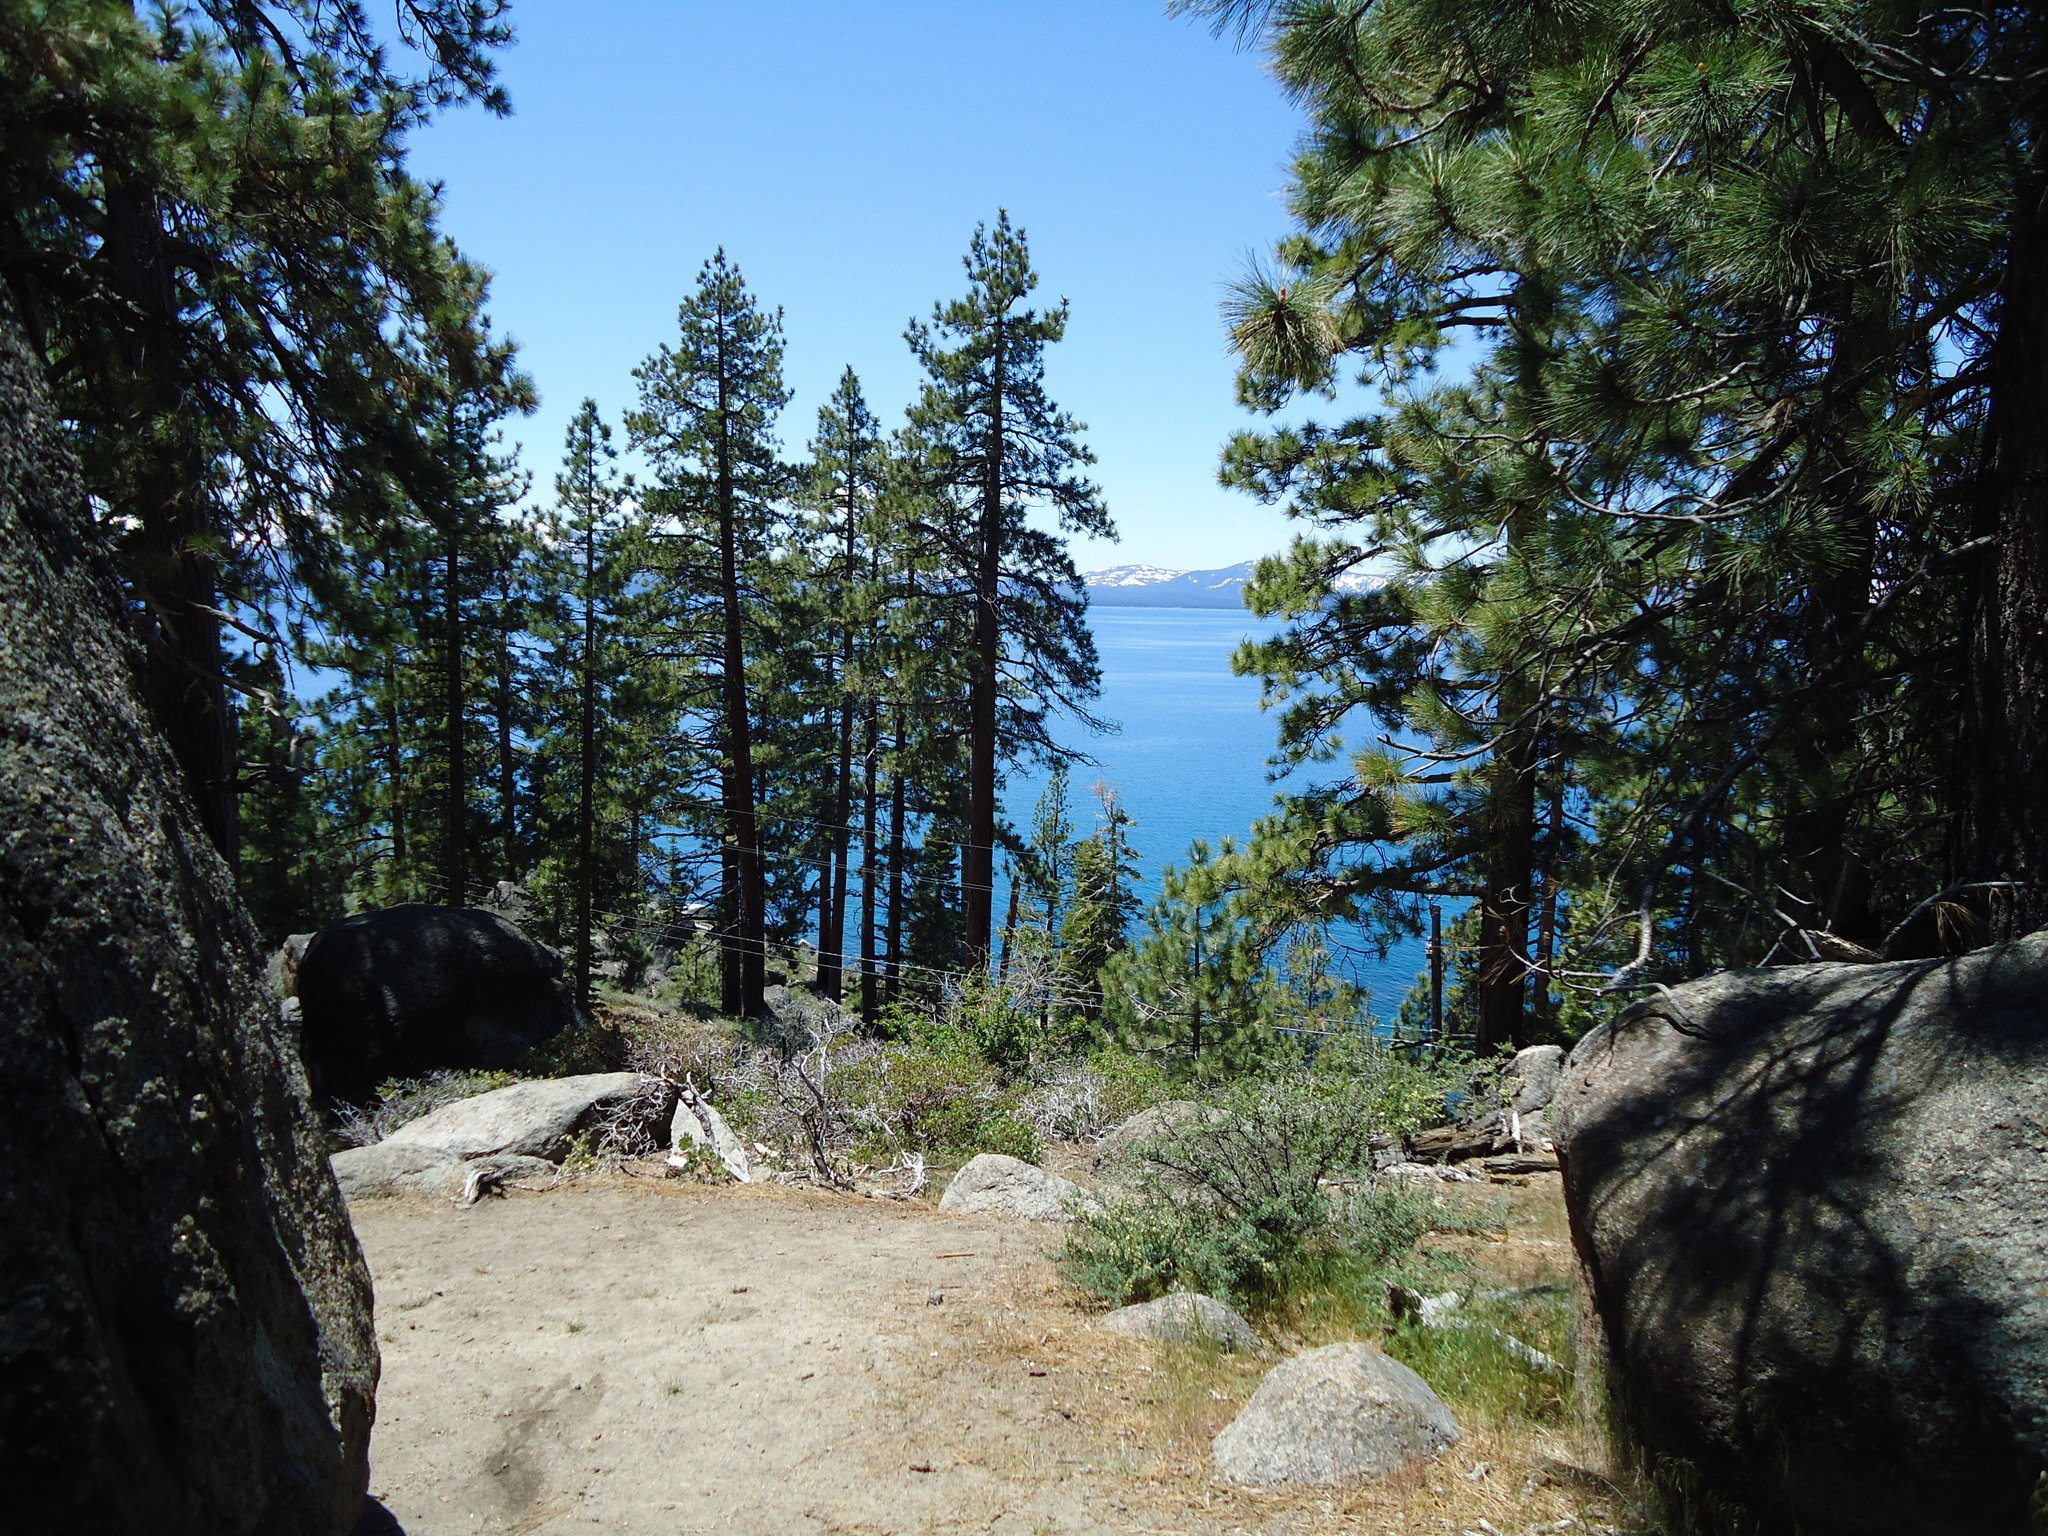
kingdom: Plantae
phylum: Tracheophyta
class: Pinopsida
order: Pinales
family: Pinaceae
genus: Pinus
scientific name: Pinus jeffreyi
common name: Jeffrey pine
